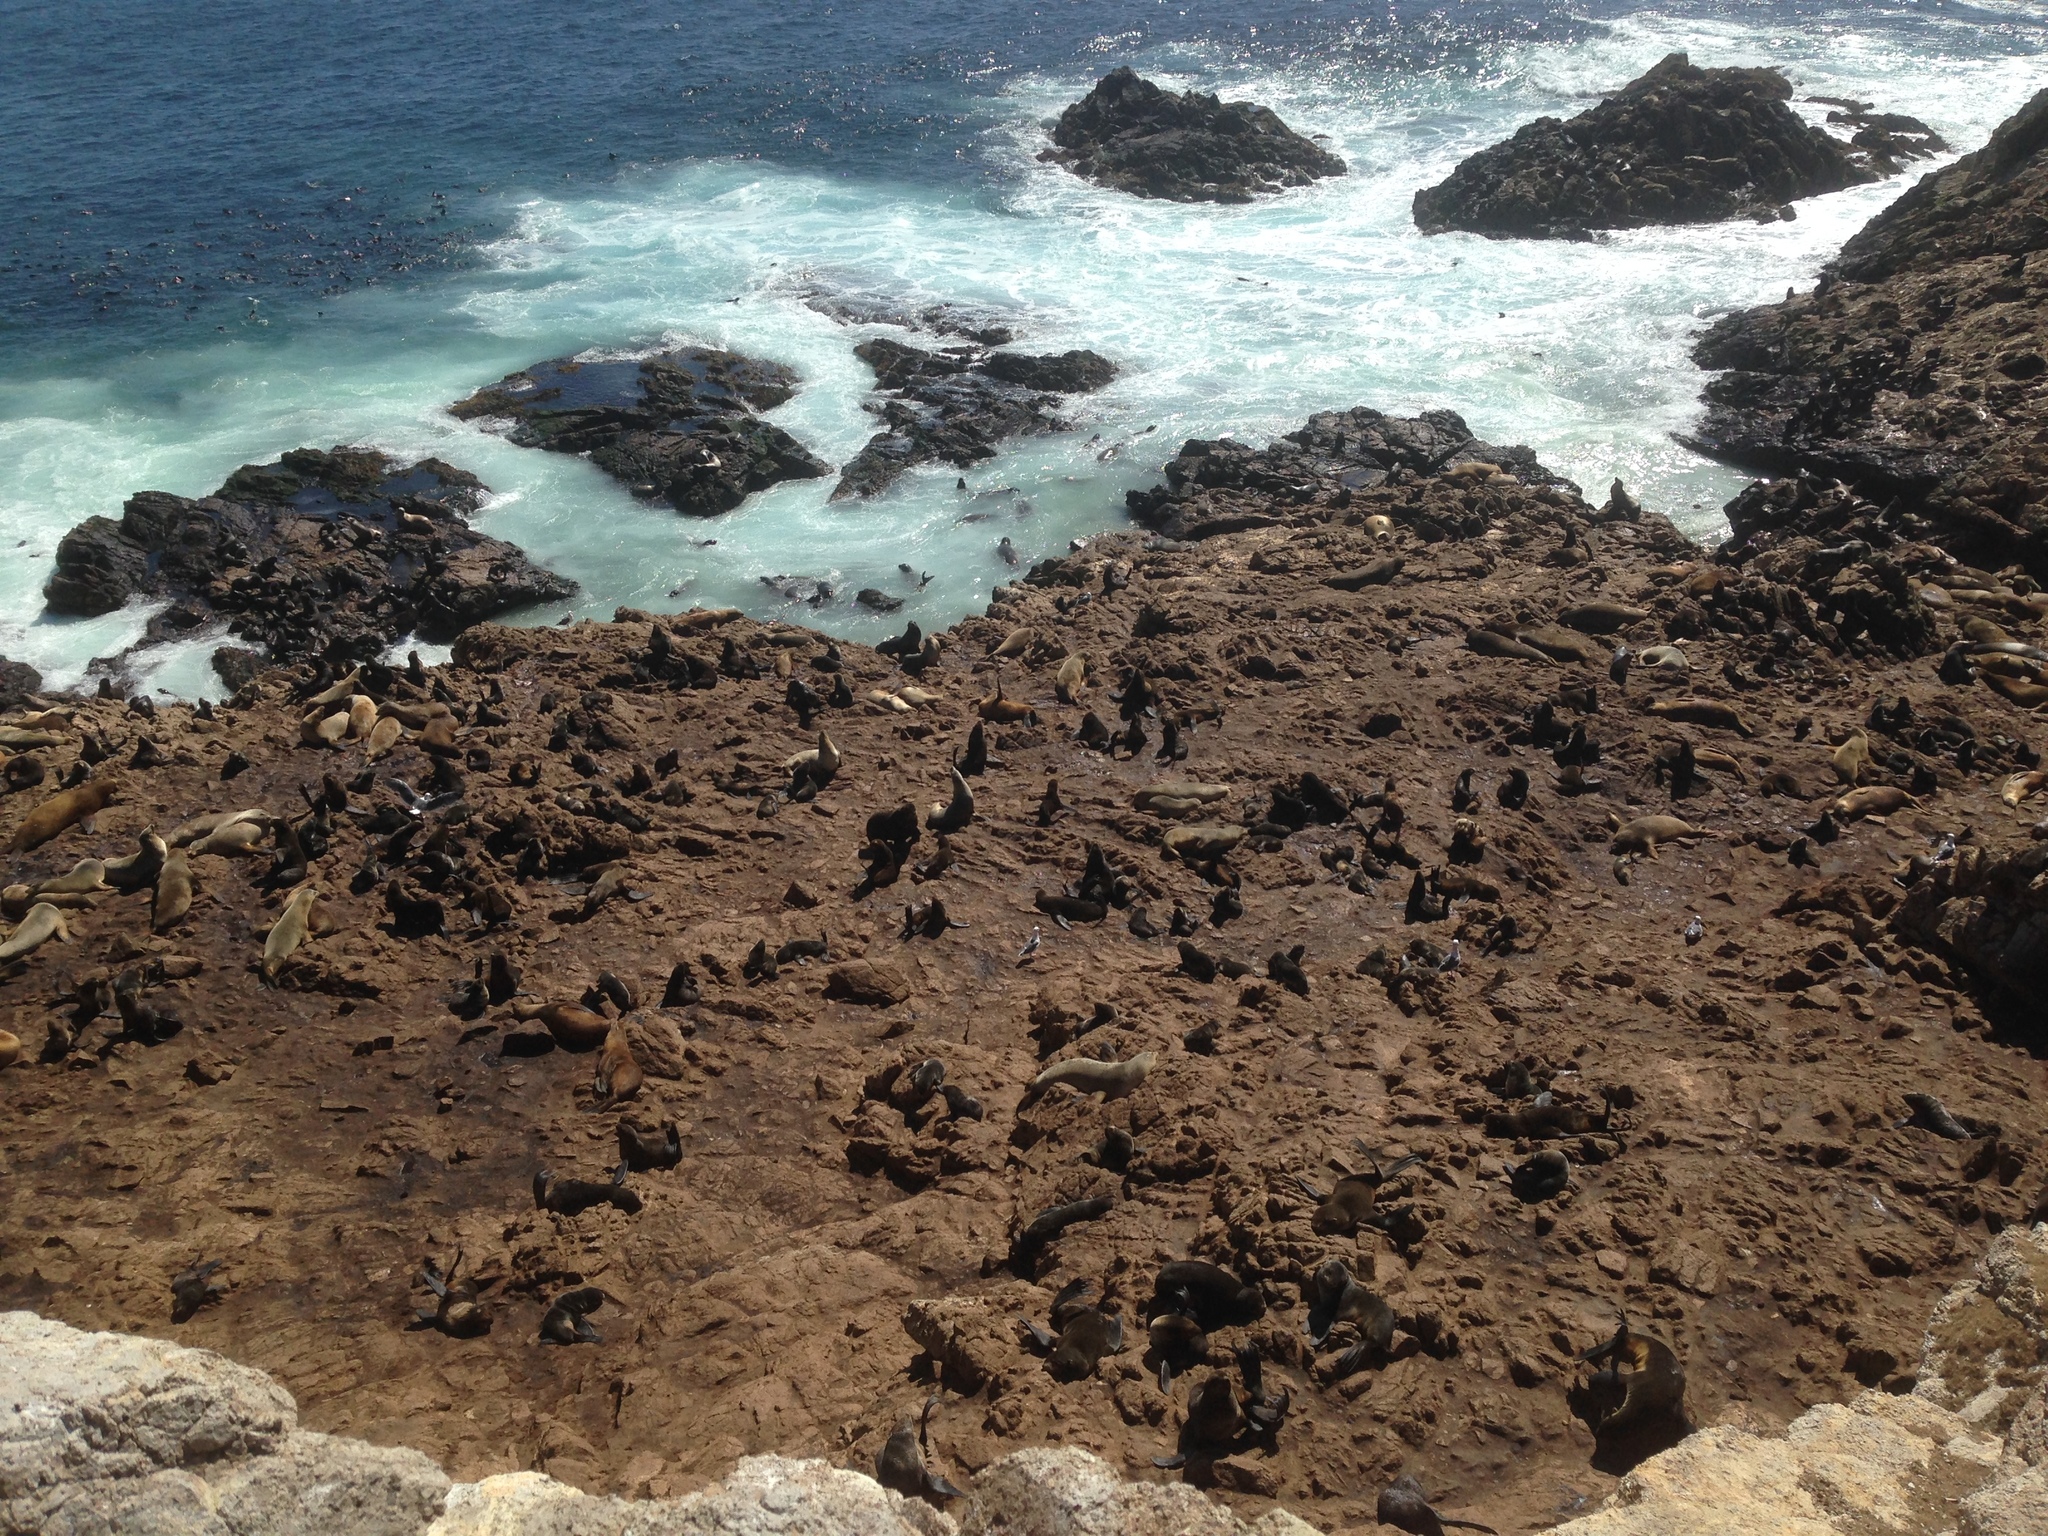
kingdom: Animalia
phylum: Chordata
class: Mammalia
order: Carnivora
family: Otariidae
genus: Callorhinus
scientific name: Callorhinus ursinus
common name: Northern fur seal
